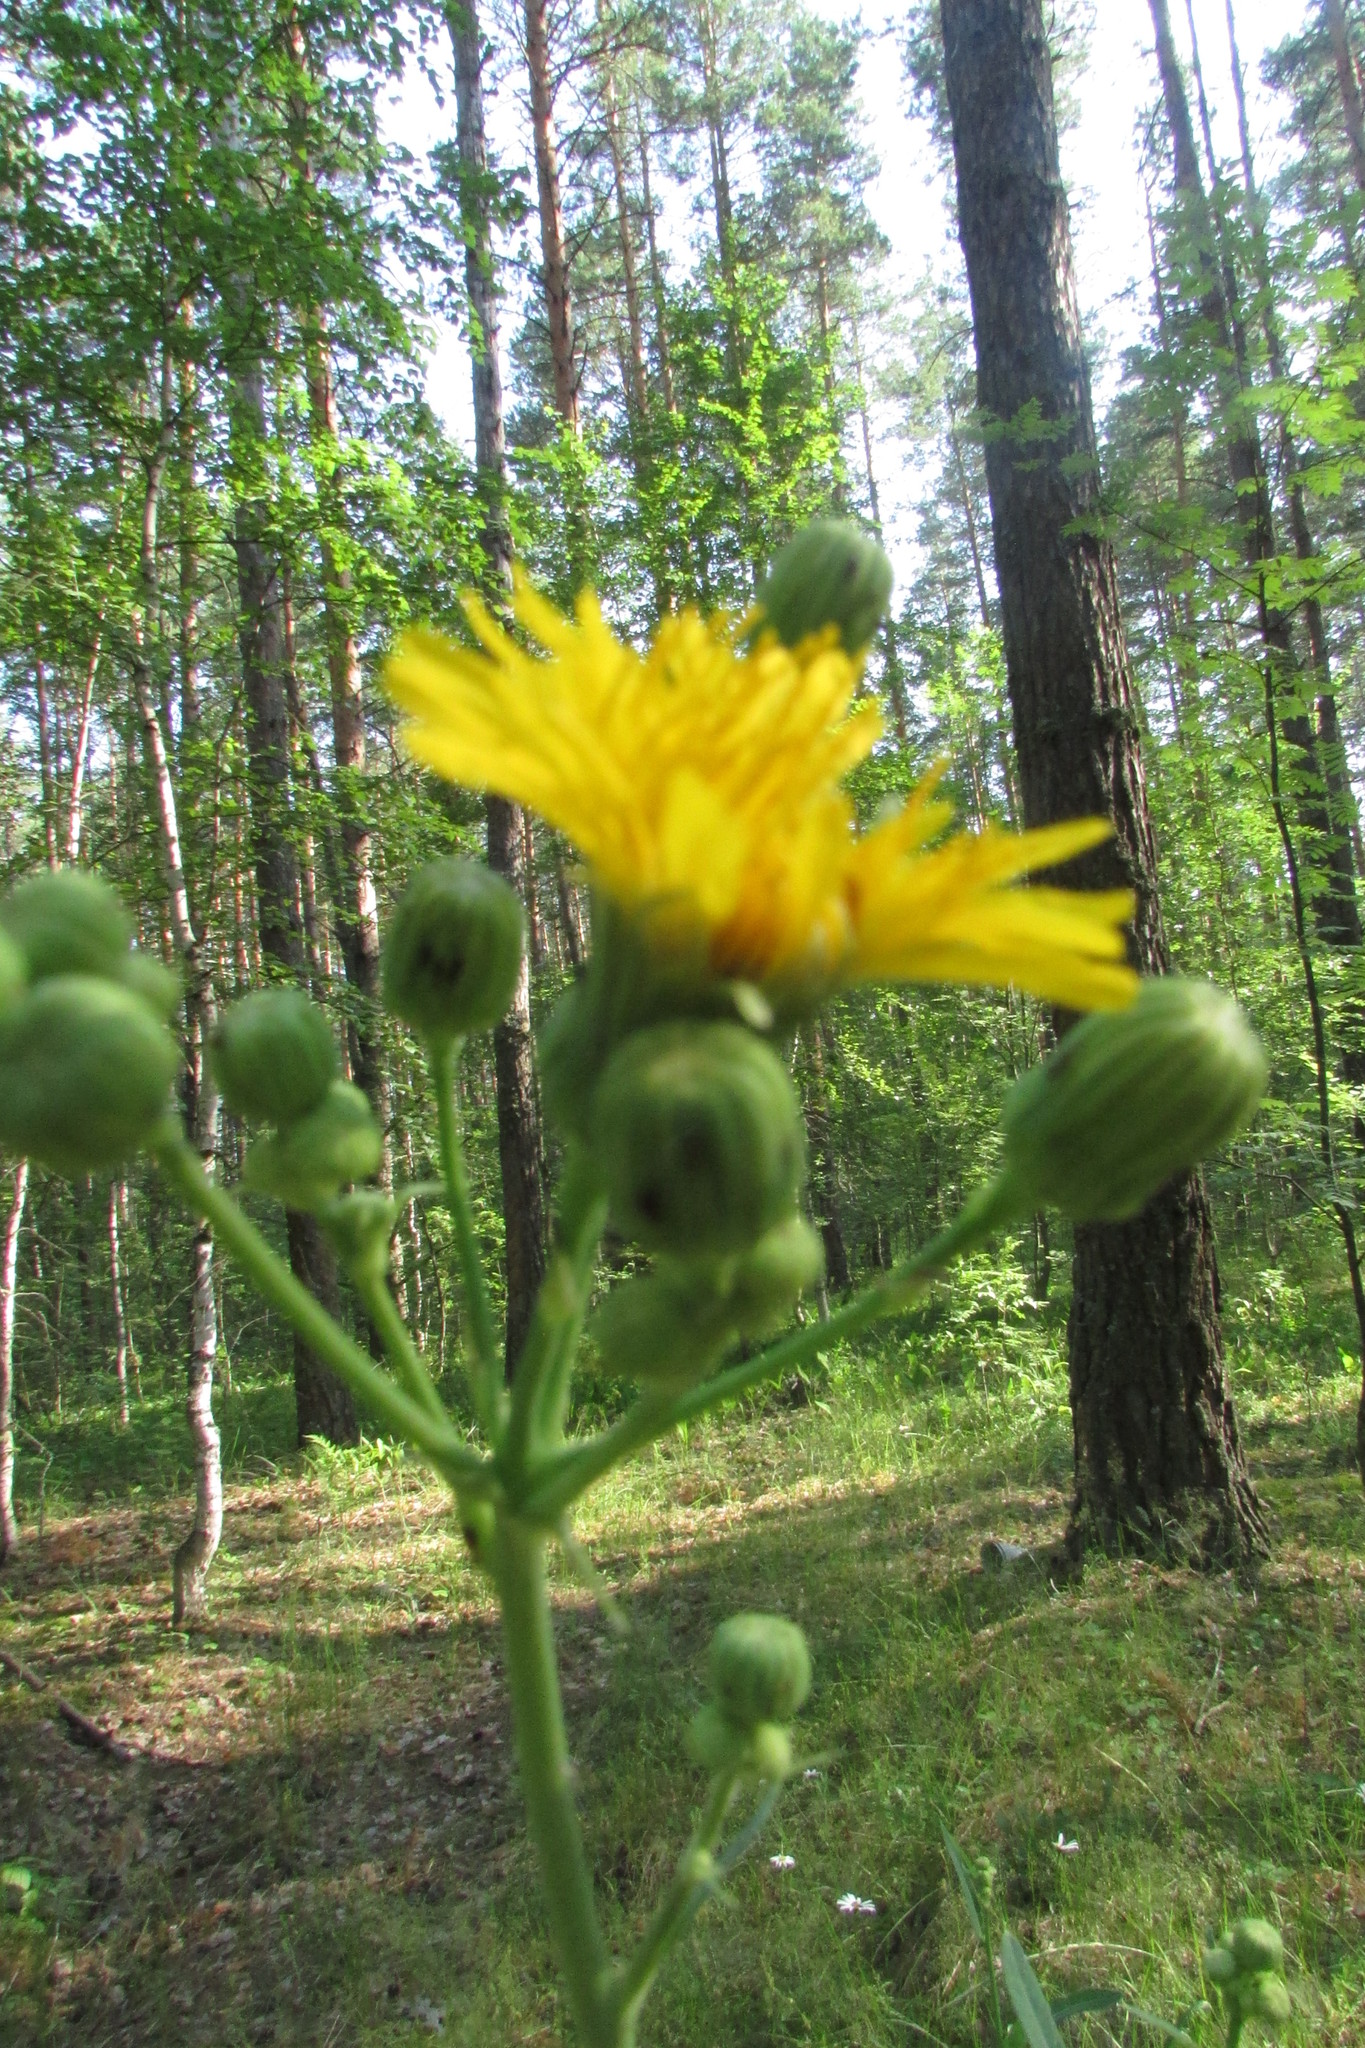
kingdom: Plantae
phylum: Tracheophyta
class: Magnoliopsida
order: Asterales
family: Asteraceae
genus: Sonchus
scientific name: Sonchus arvensis
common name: Perennial sow-thistle
